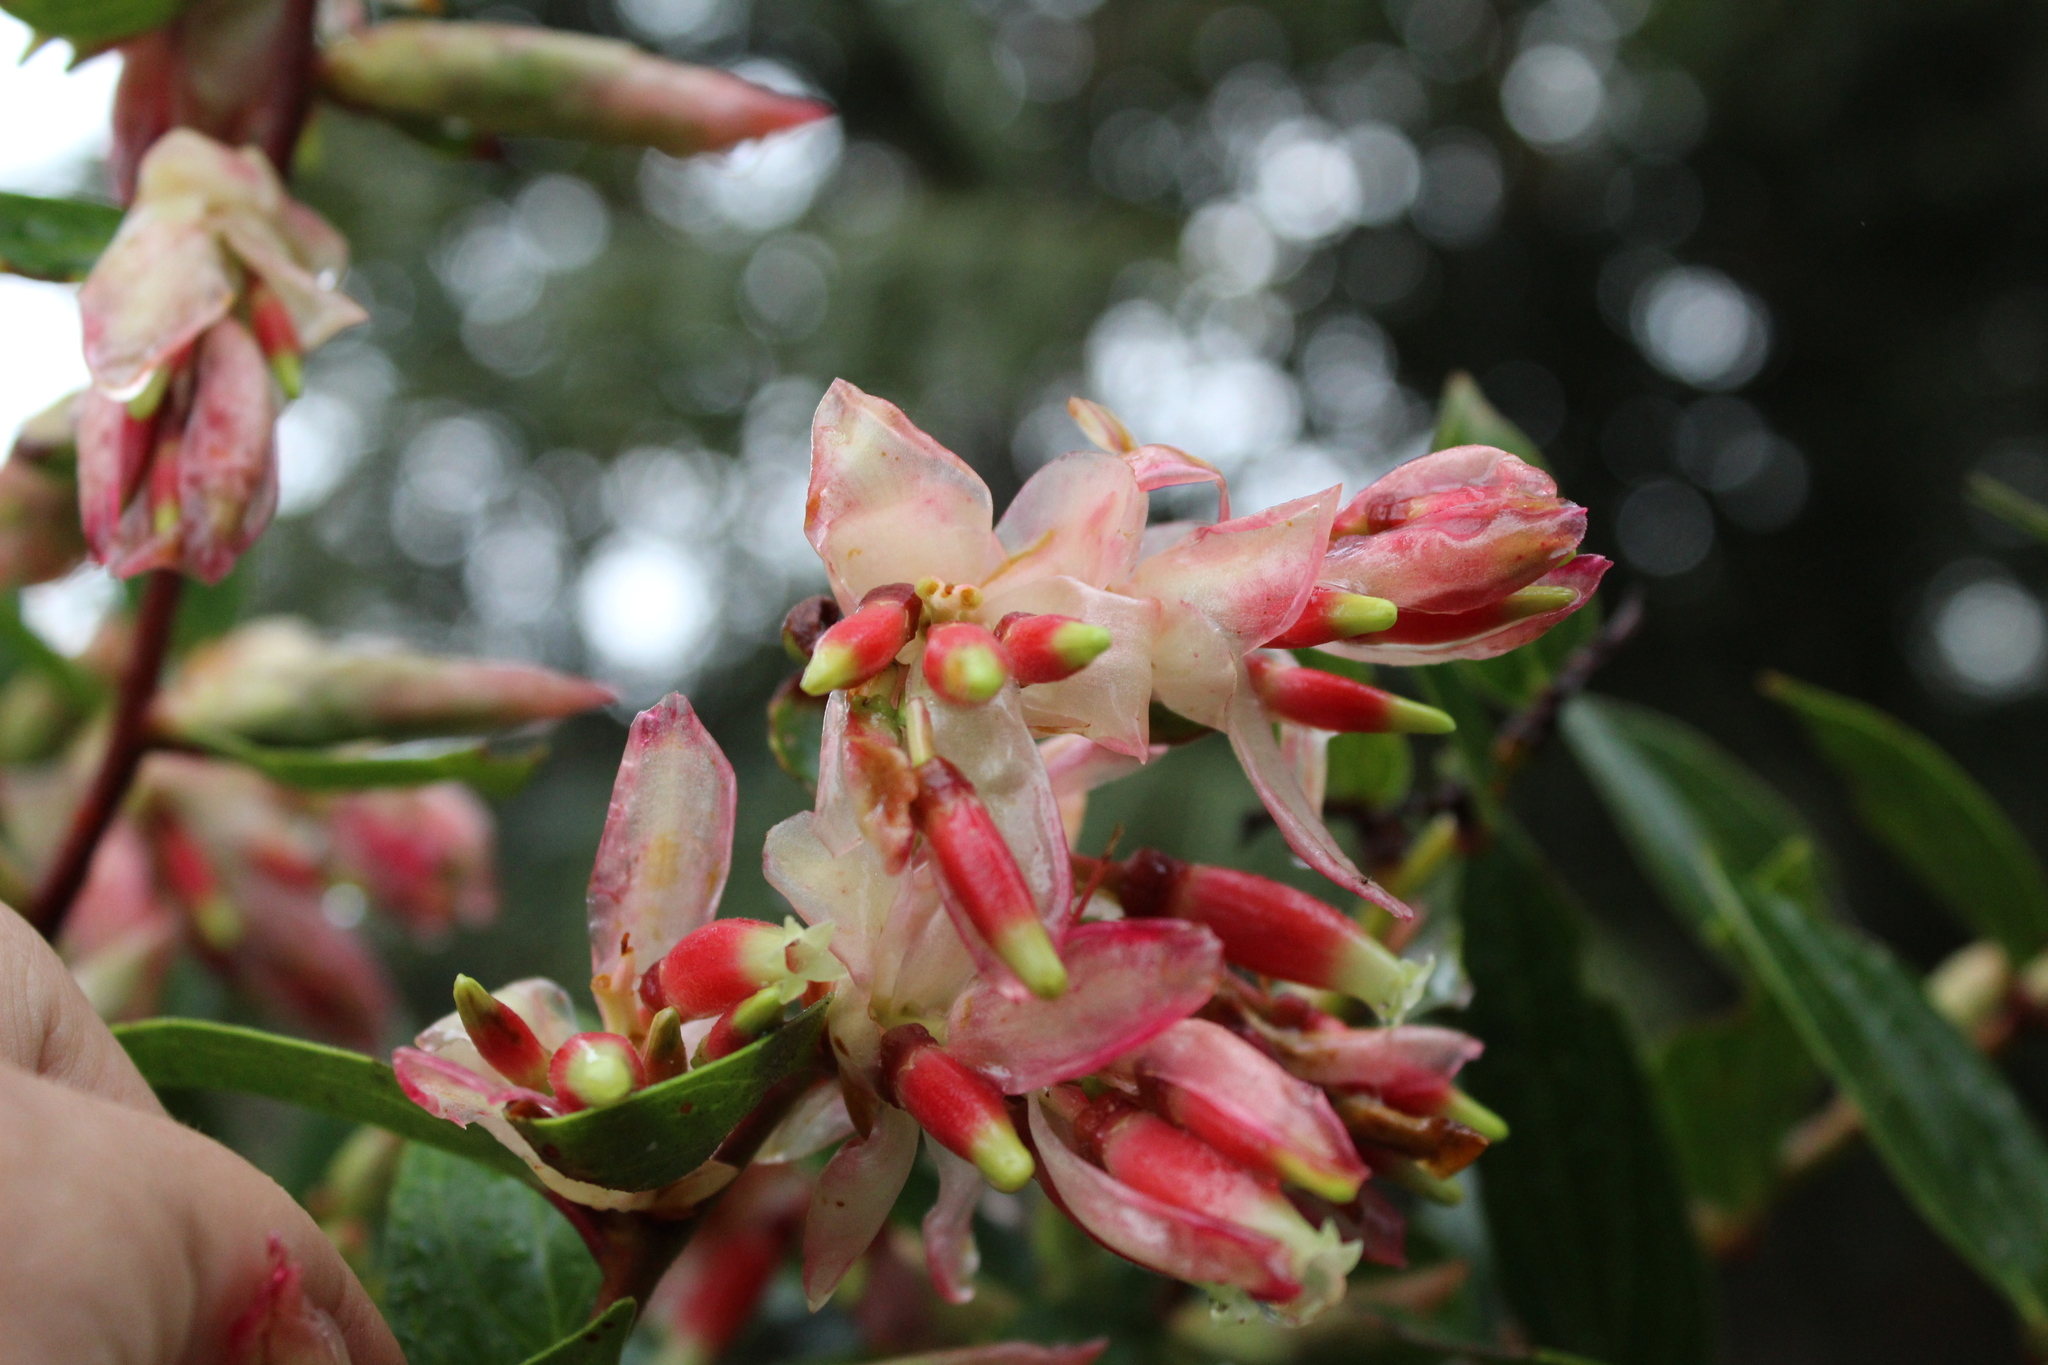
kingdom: Plantae
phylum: Tracheophyta
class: Magnoliopsida
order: Ericales
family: Ericaceae
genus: Cavendishia
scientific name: Cavendishia bracteata
